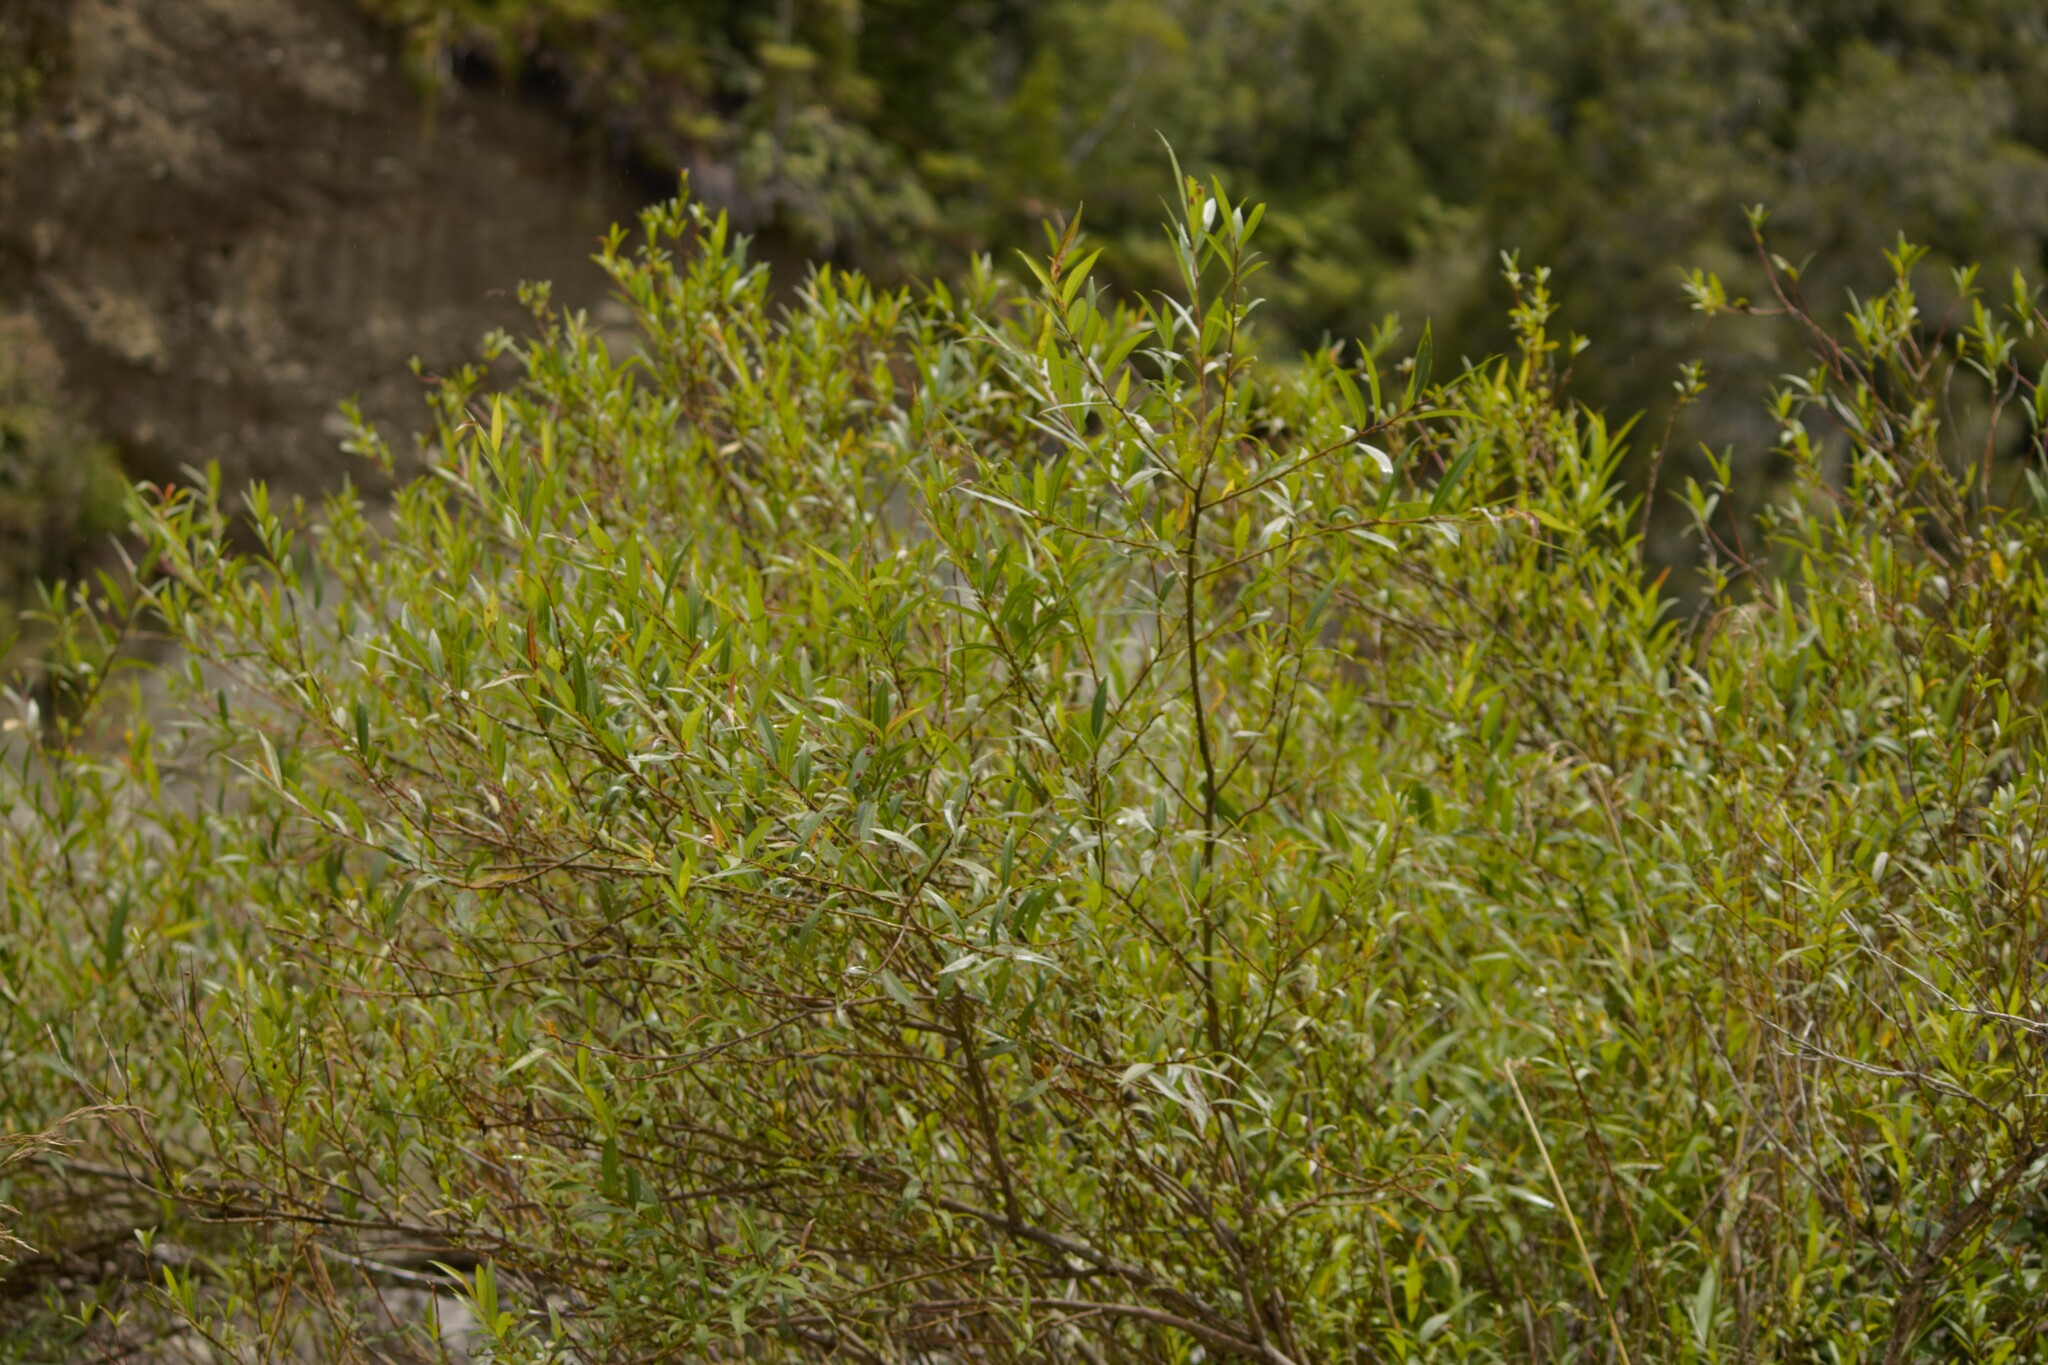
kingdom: Plantae
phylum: Tracheophyta
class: Magnoliopsida
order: Malpighiales
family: Salicaceae
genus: Salix
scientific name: Salix fragilis
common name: Crack willow
